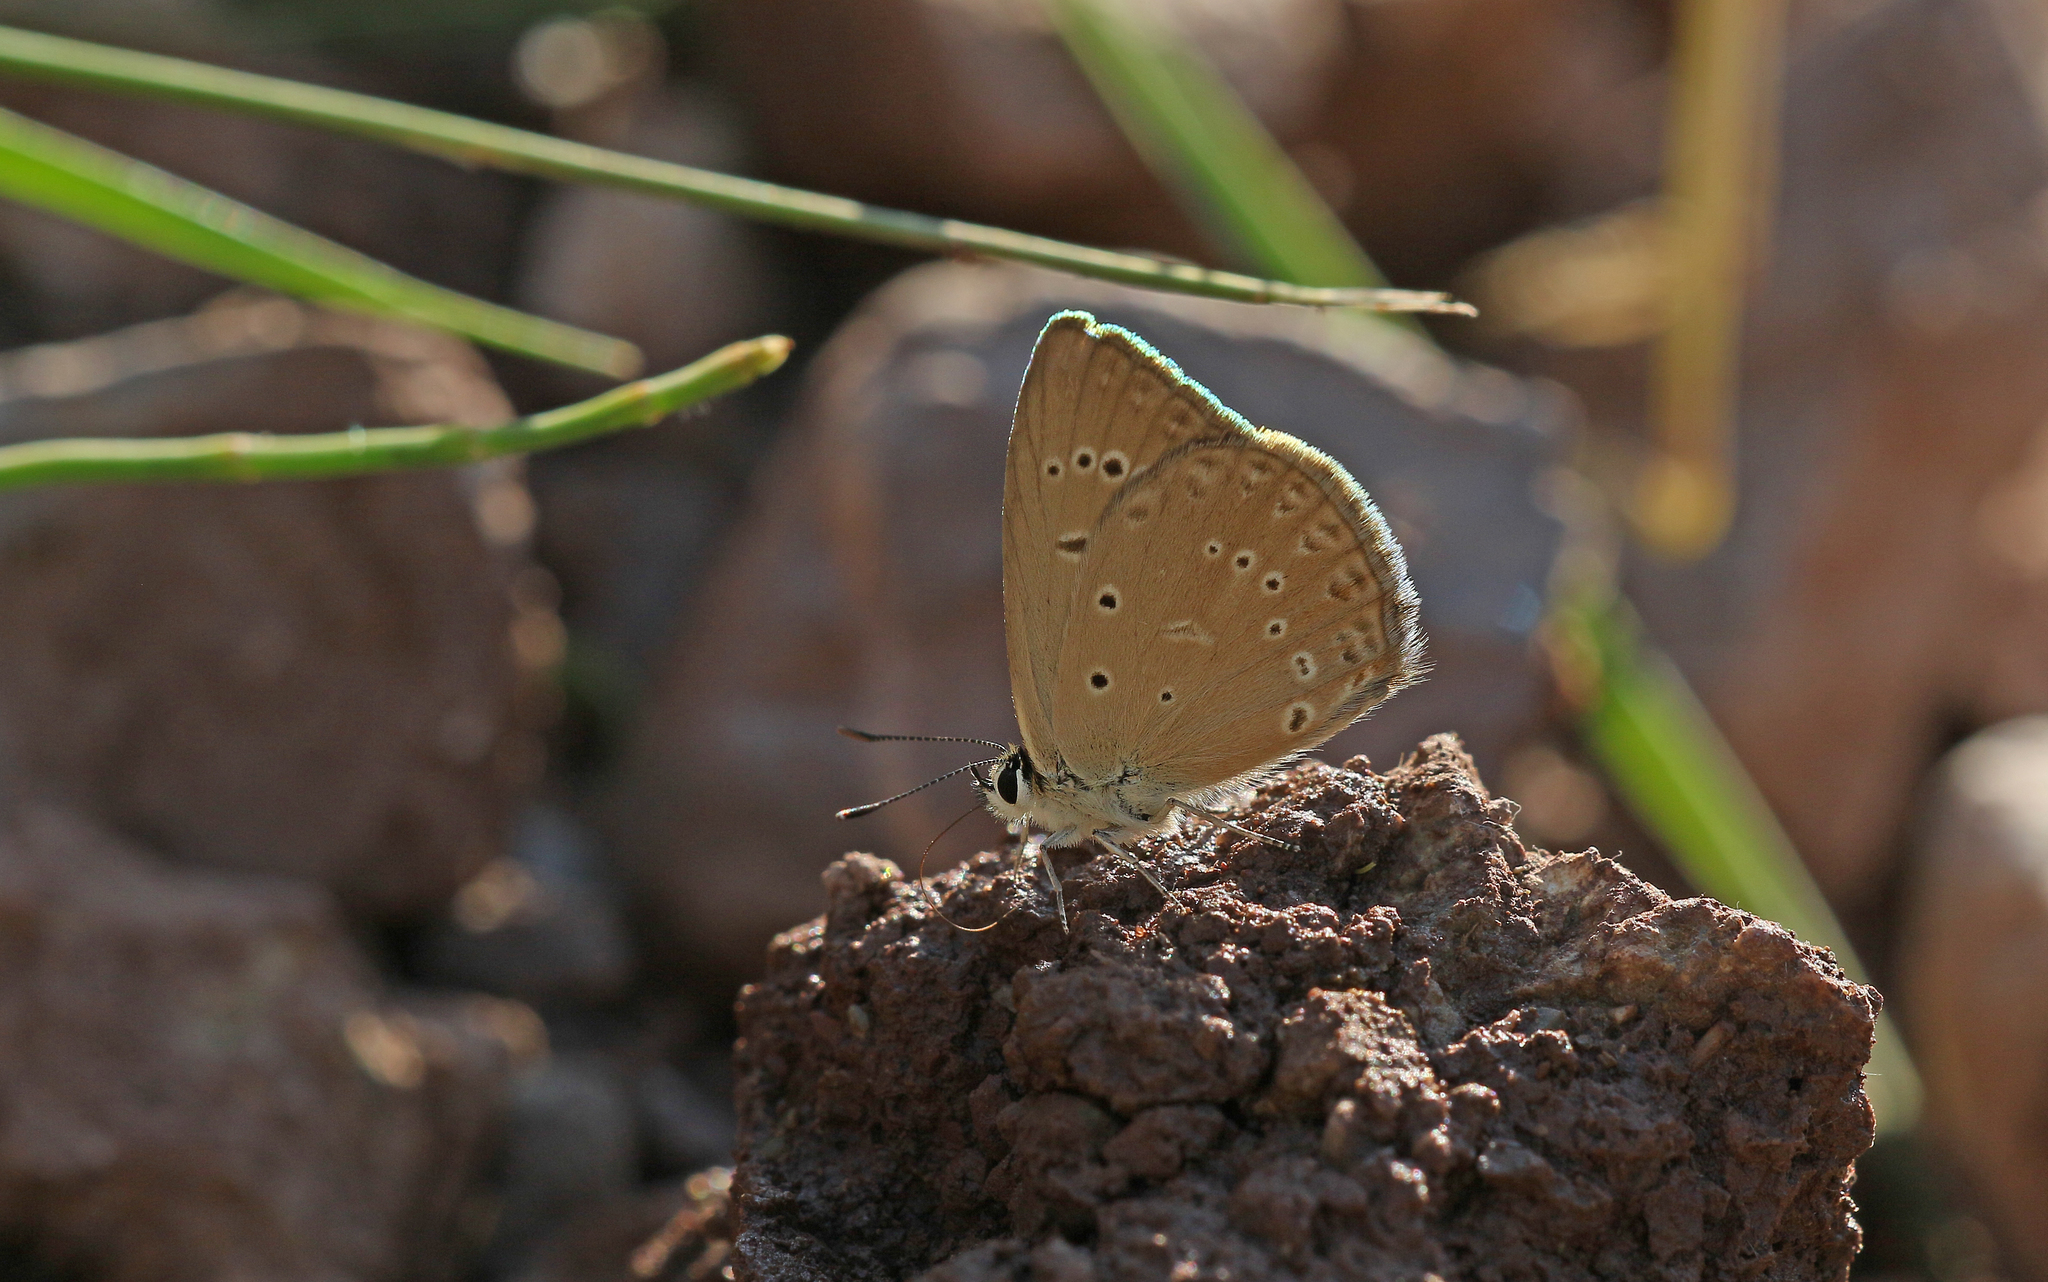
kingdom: Animalia
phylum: Arthropoda
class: Insecta
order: Lepidoptera
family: Lycaenidae
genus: Agrodiaetus
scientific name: Agrodiaetus admetus
